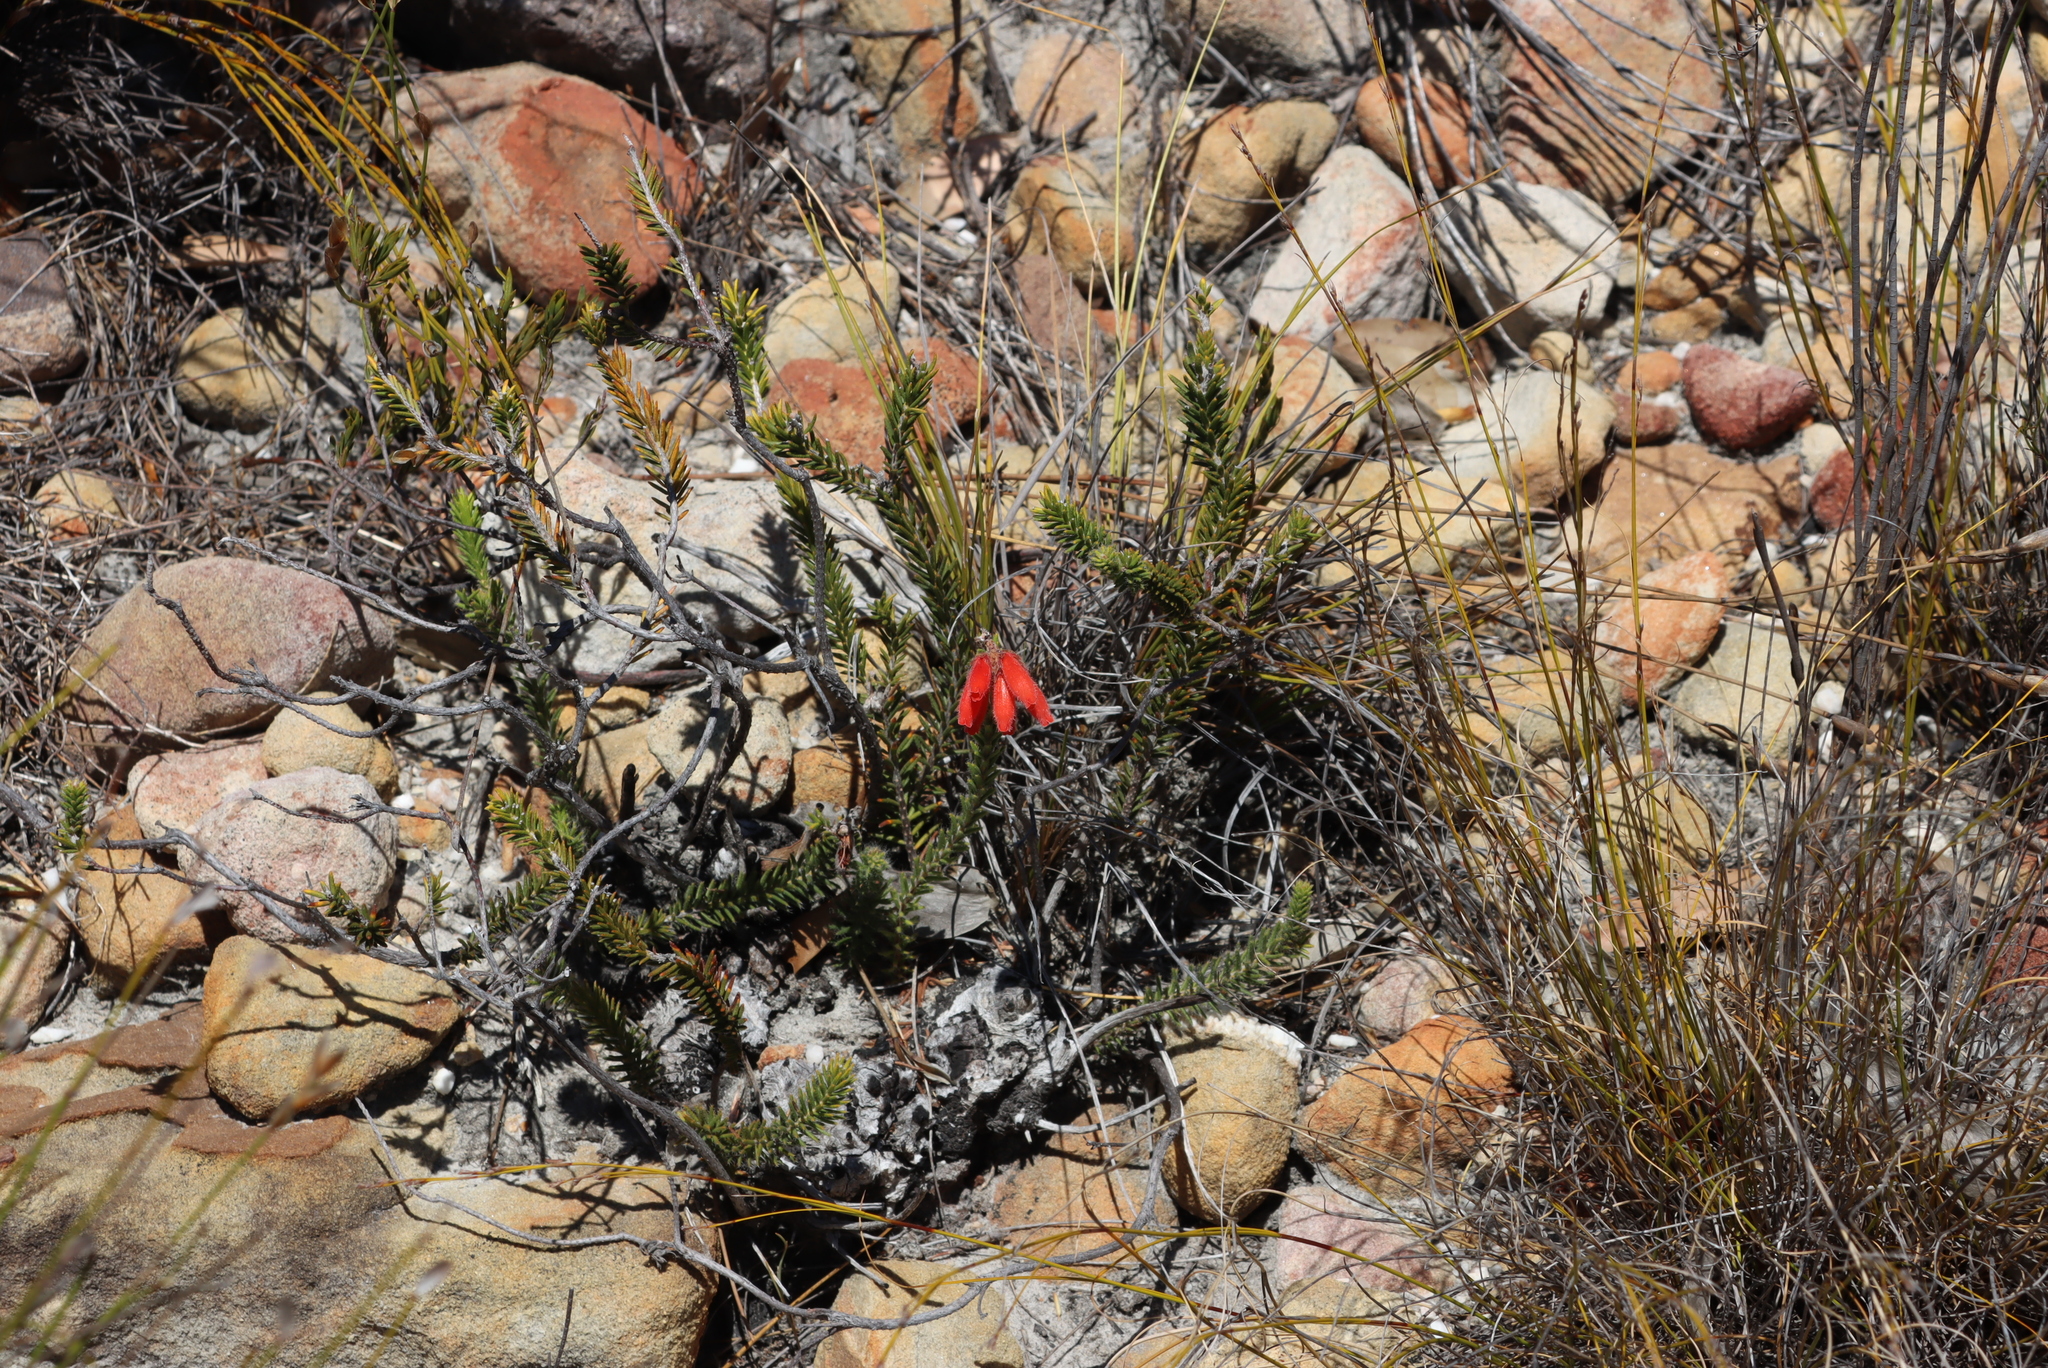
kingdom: Plantae
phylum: Tracheophyta
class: Magnoliopsida
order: Ericales
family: Ericaceae
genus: Erica
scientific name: Erica cerinthoides
